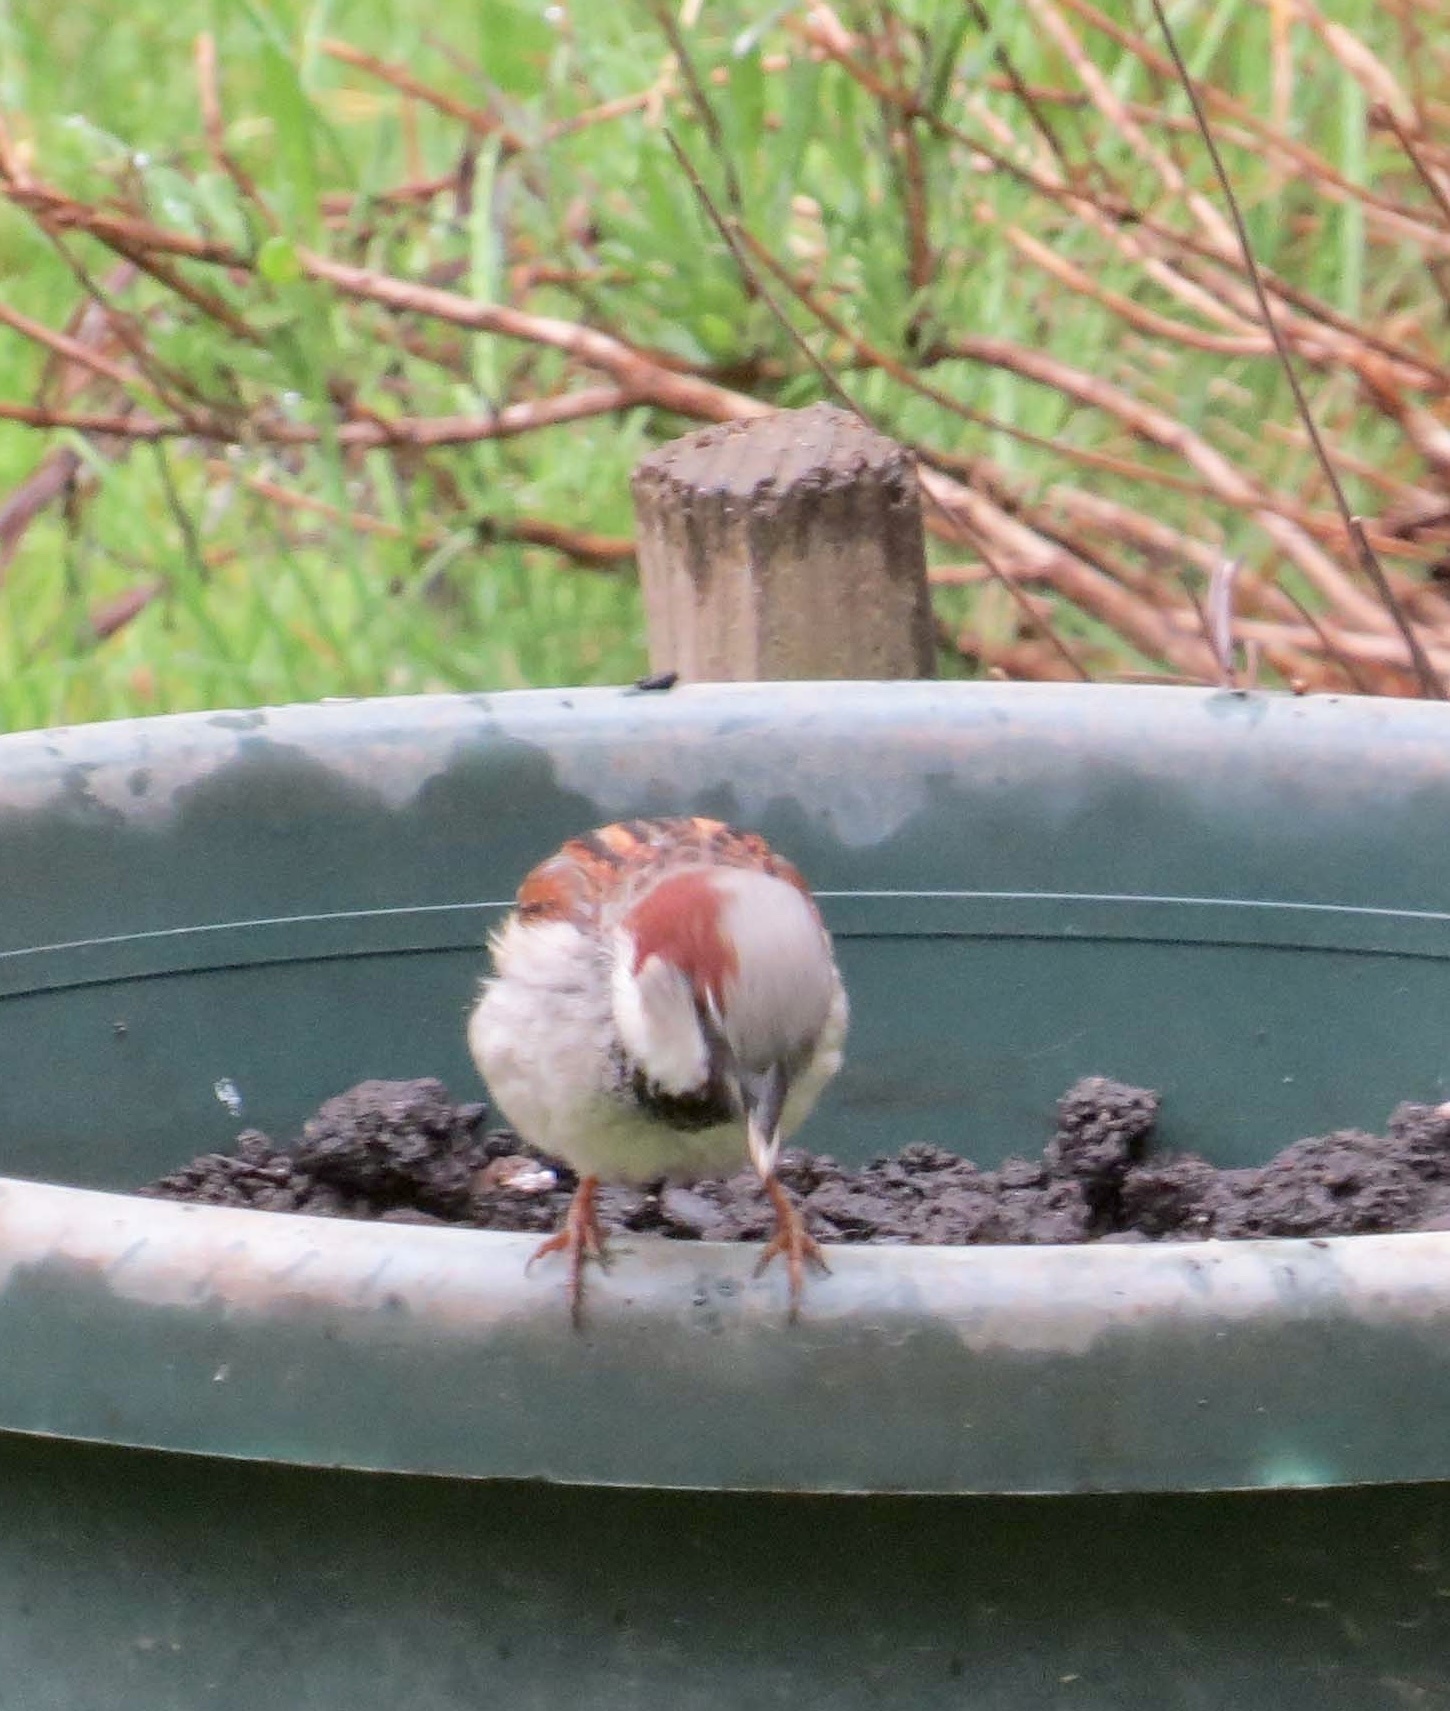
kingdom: Animalia
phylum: Chordata
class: Aves
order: Passeriformes
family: Passeridae
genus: Passer
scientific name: Passer domesticus
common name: House sparrow
